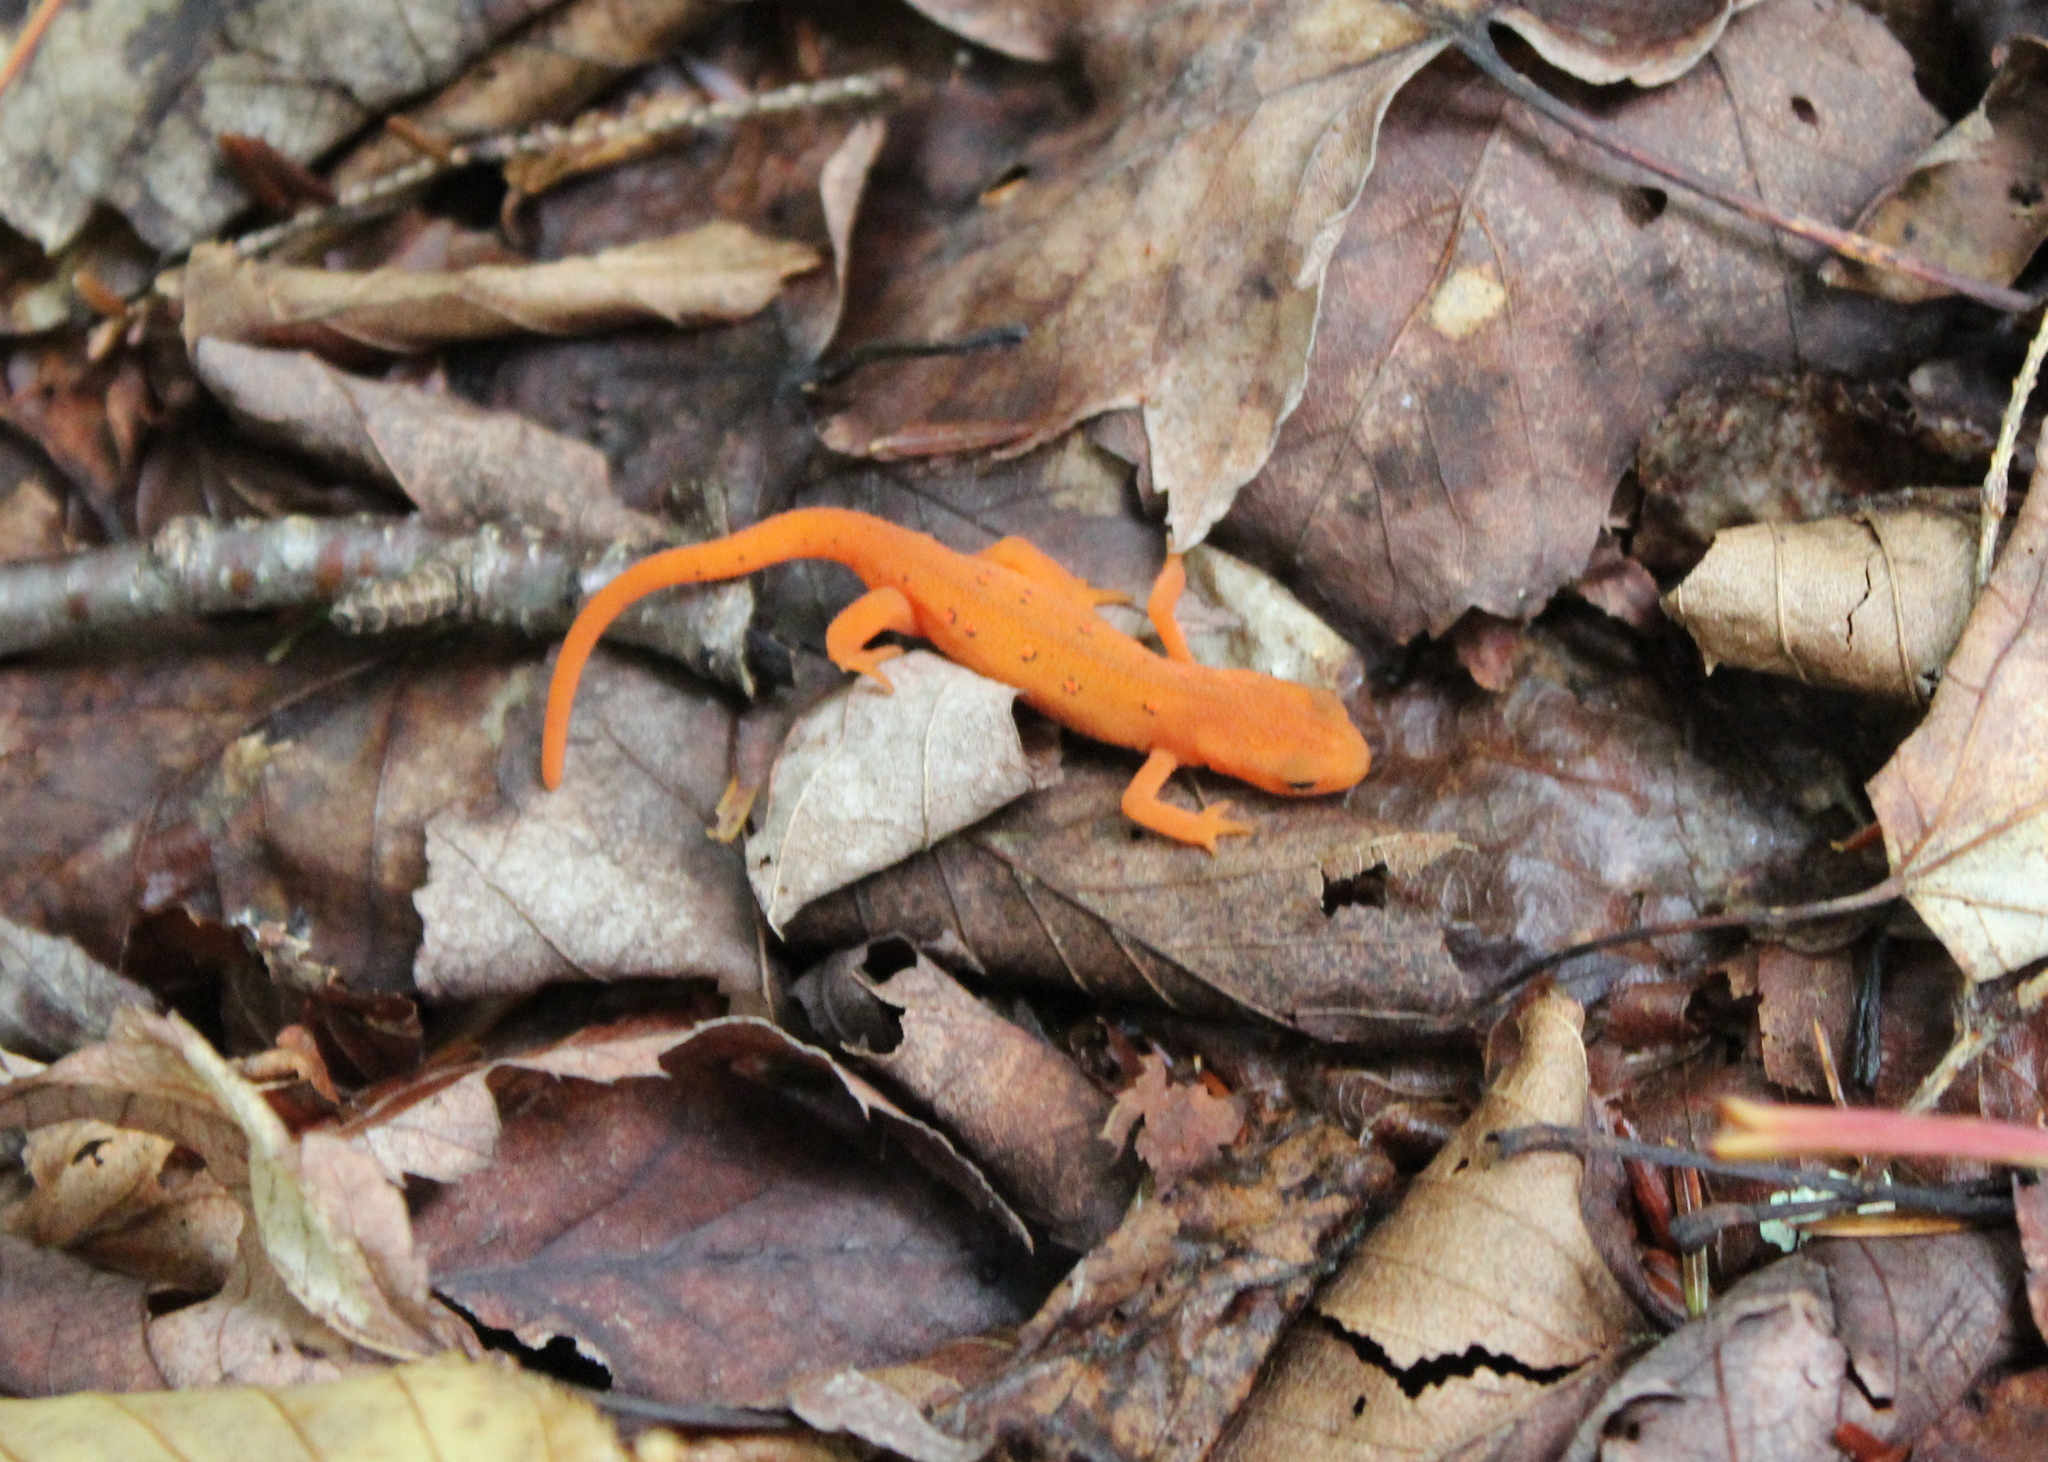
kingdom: Animalia
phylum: Chordata
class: Amphibia
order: Caudata
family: Salamandridae
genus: Notophthalmus
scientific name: Notophthalmus viridescens
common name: Eastern newt
